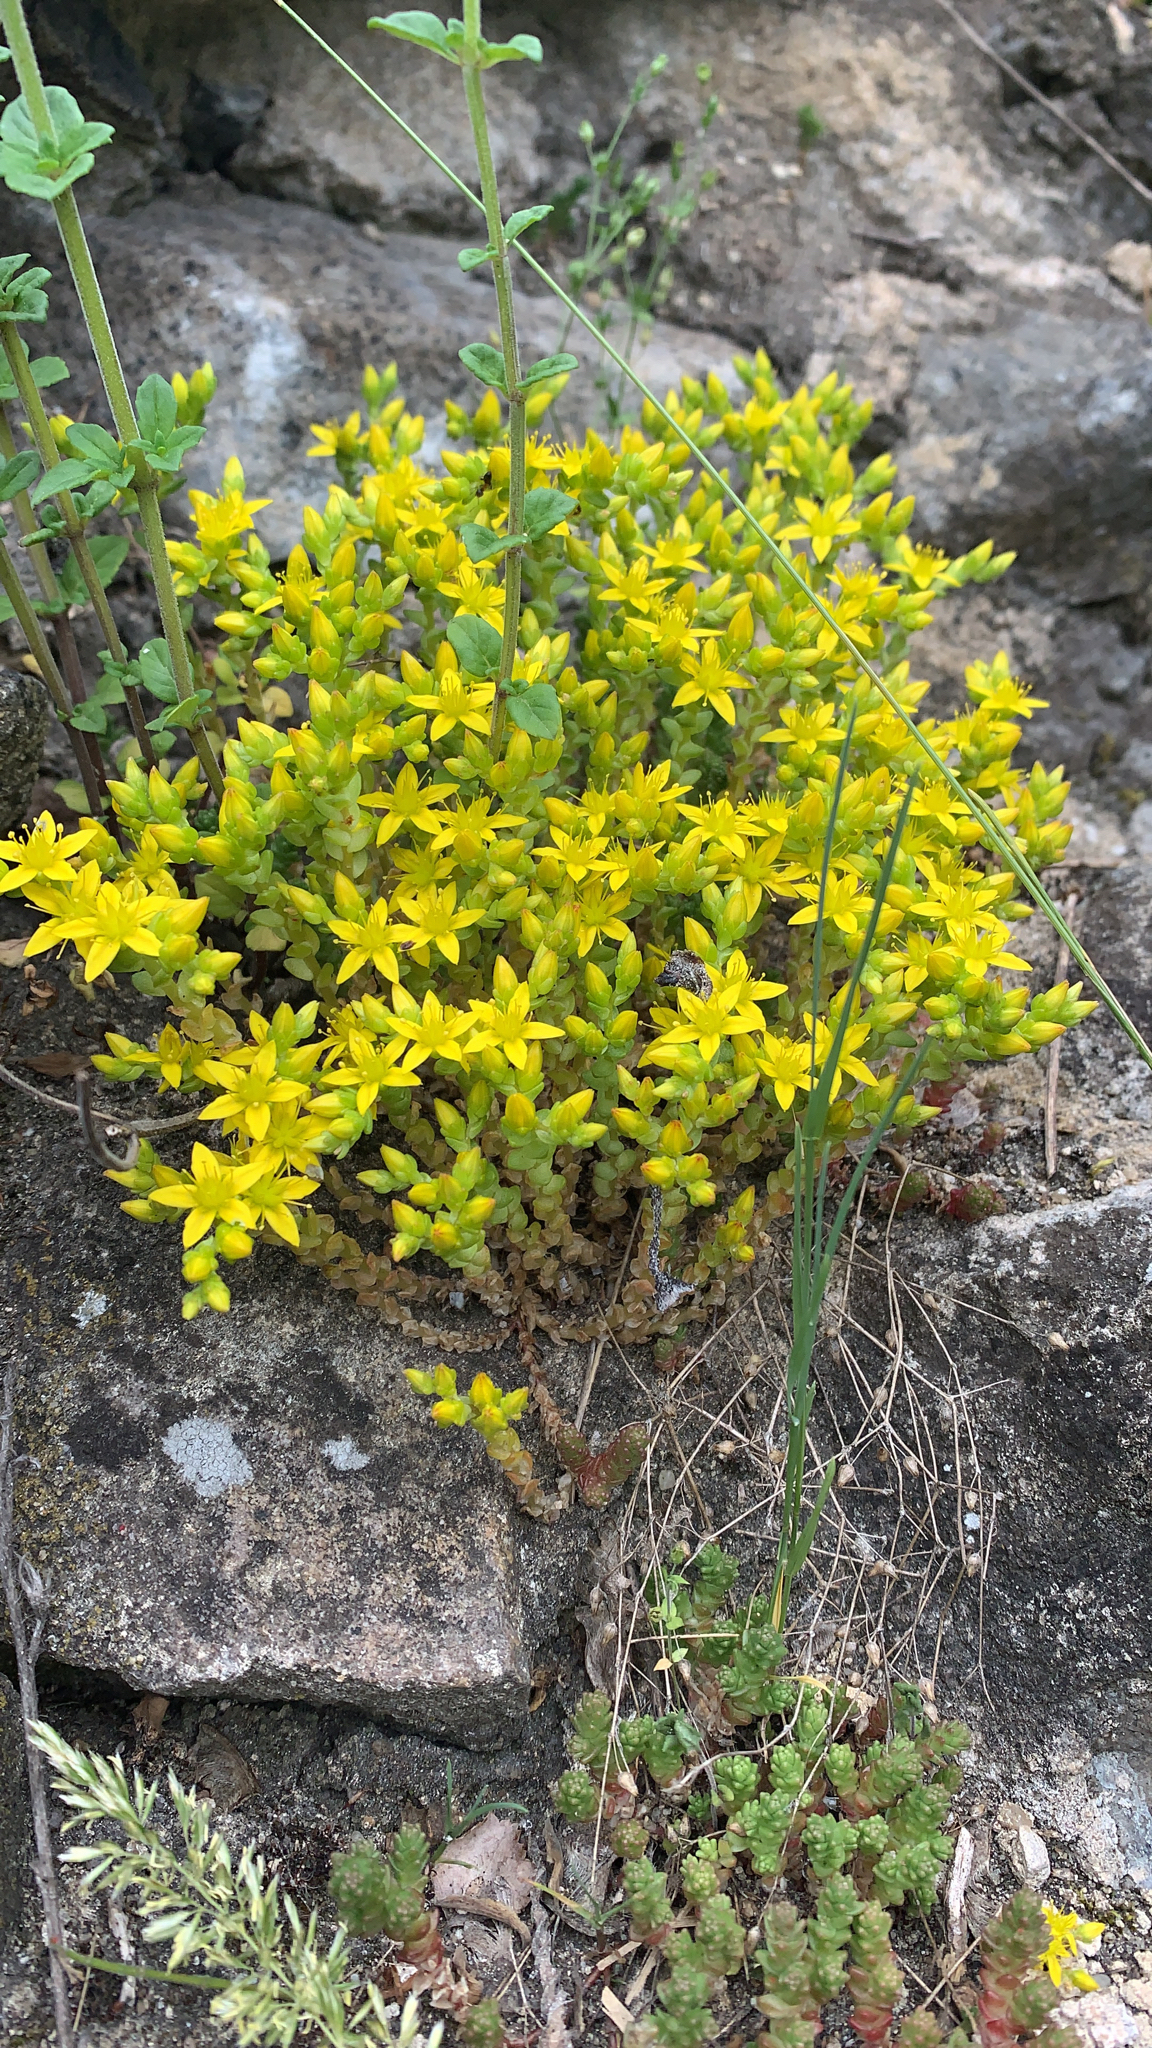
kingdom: Plantae
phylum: Tracheophyta
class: Magnoliopsida
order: Saxifragales
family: Crassulaceae
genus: Sedum
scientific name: Sedum acre
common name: Biting stonecrop
